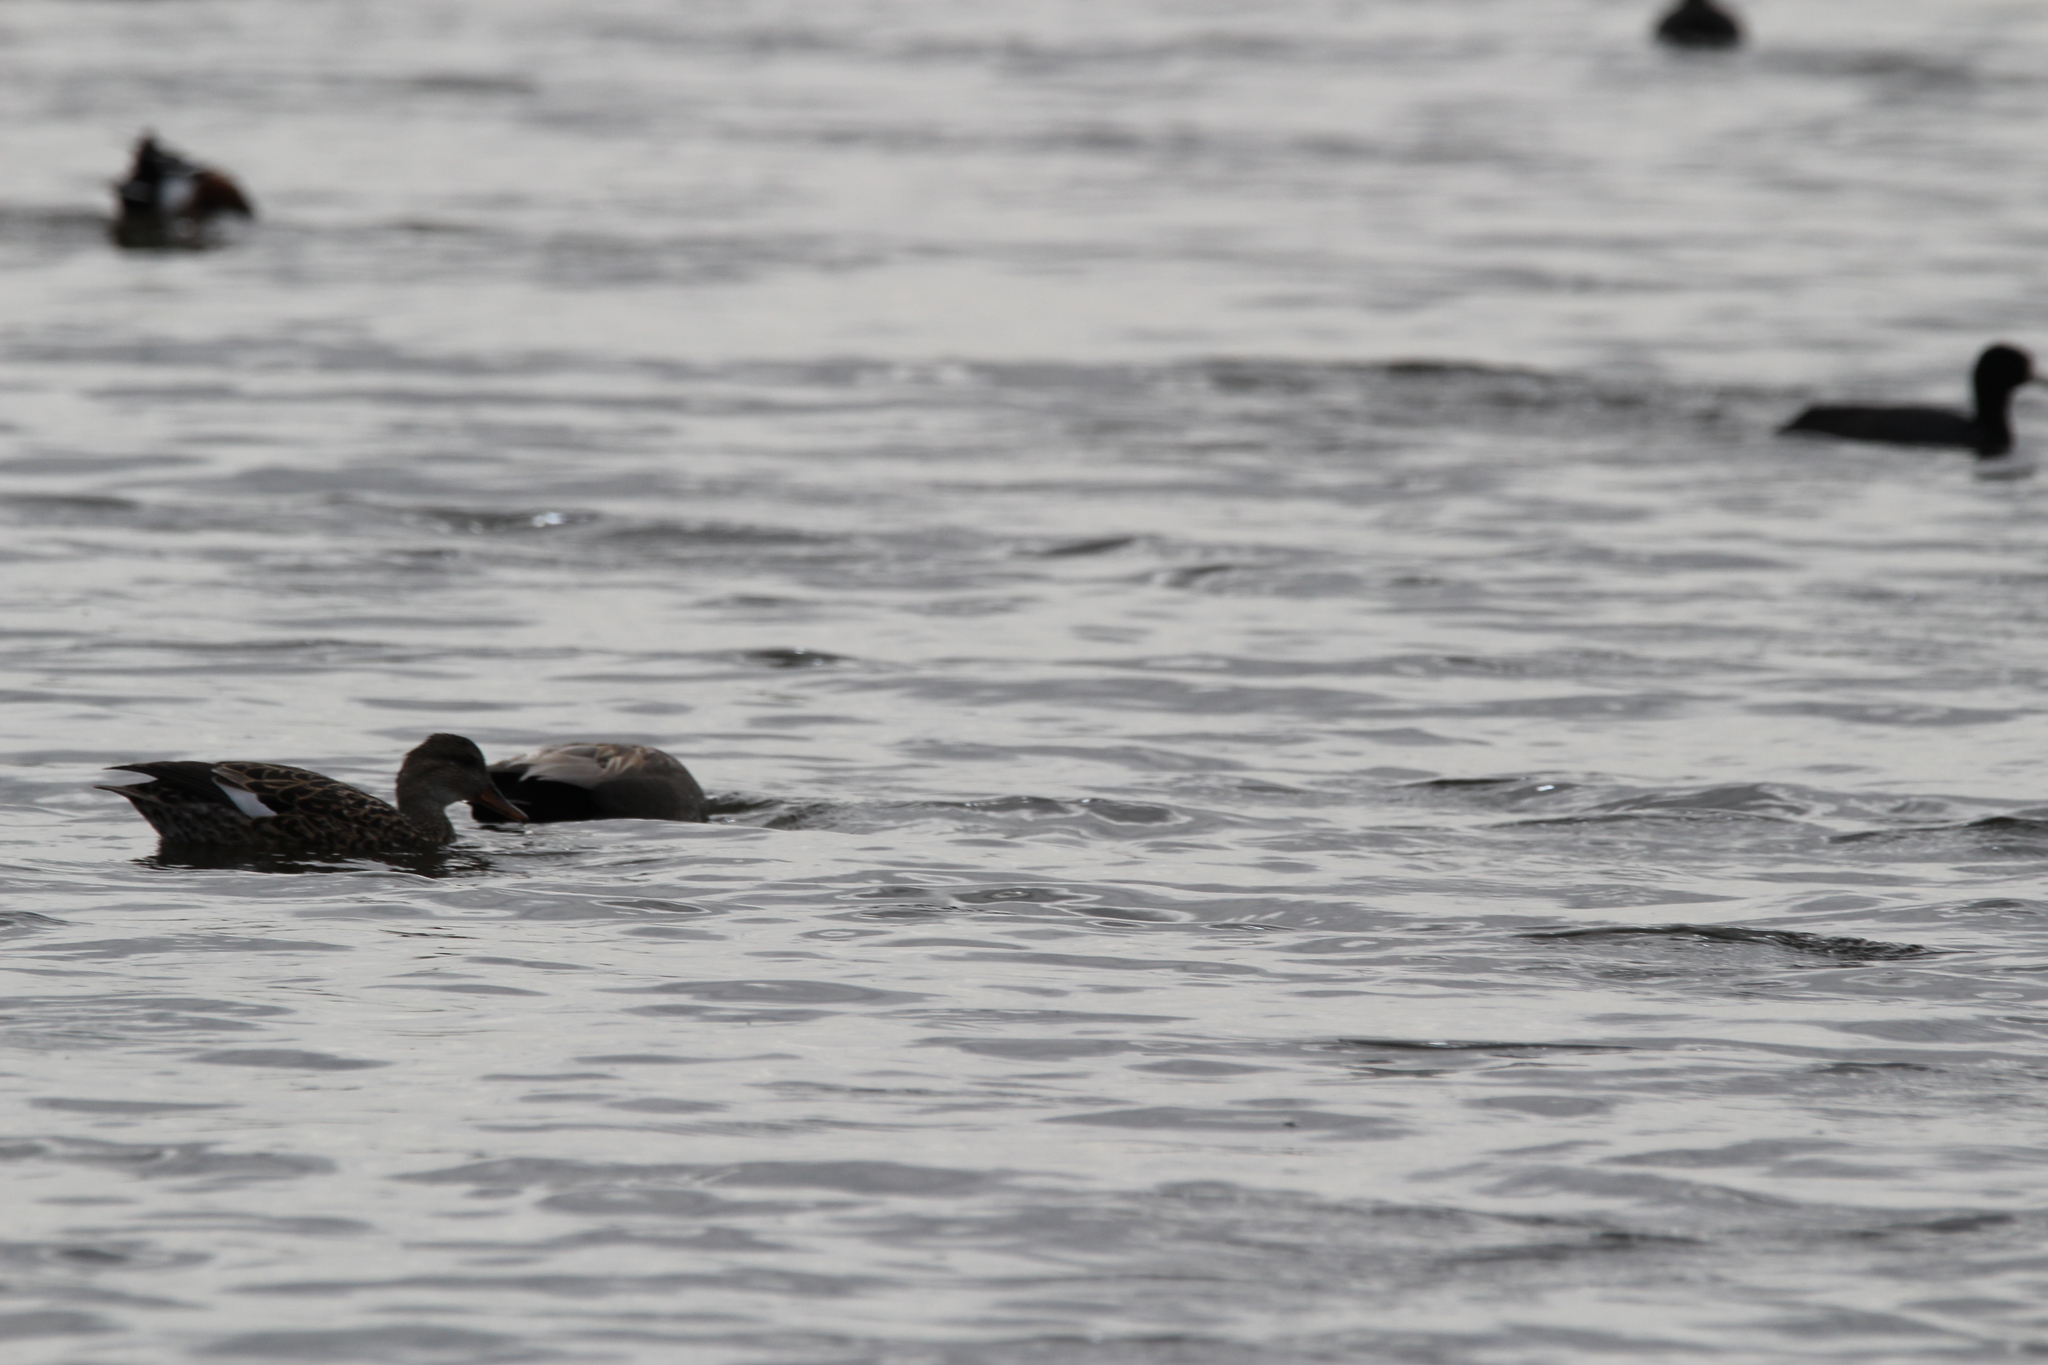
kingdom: Animalia
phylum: Chordata
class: Aves
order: Anseriformes
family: Anatidae
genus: Mareca
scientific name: Mareca strepera
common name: Gadwall
